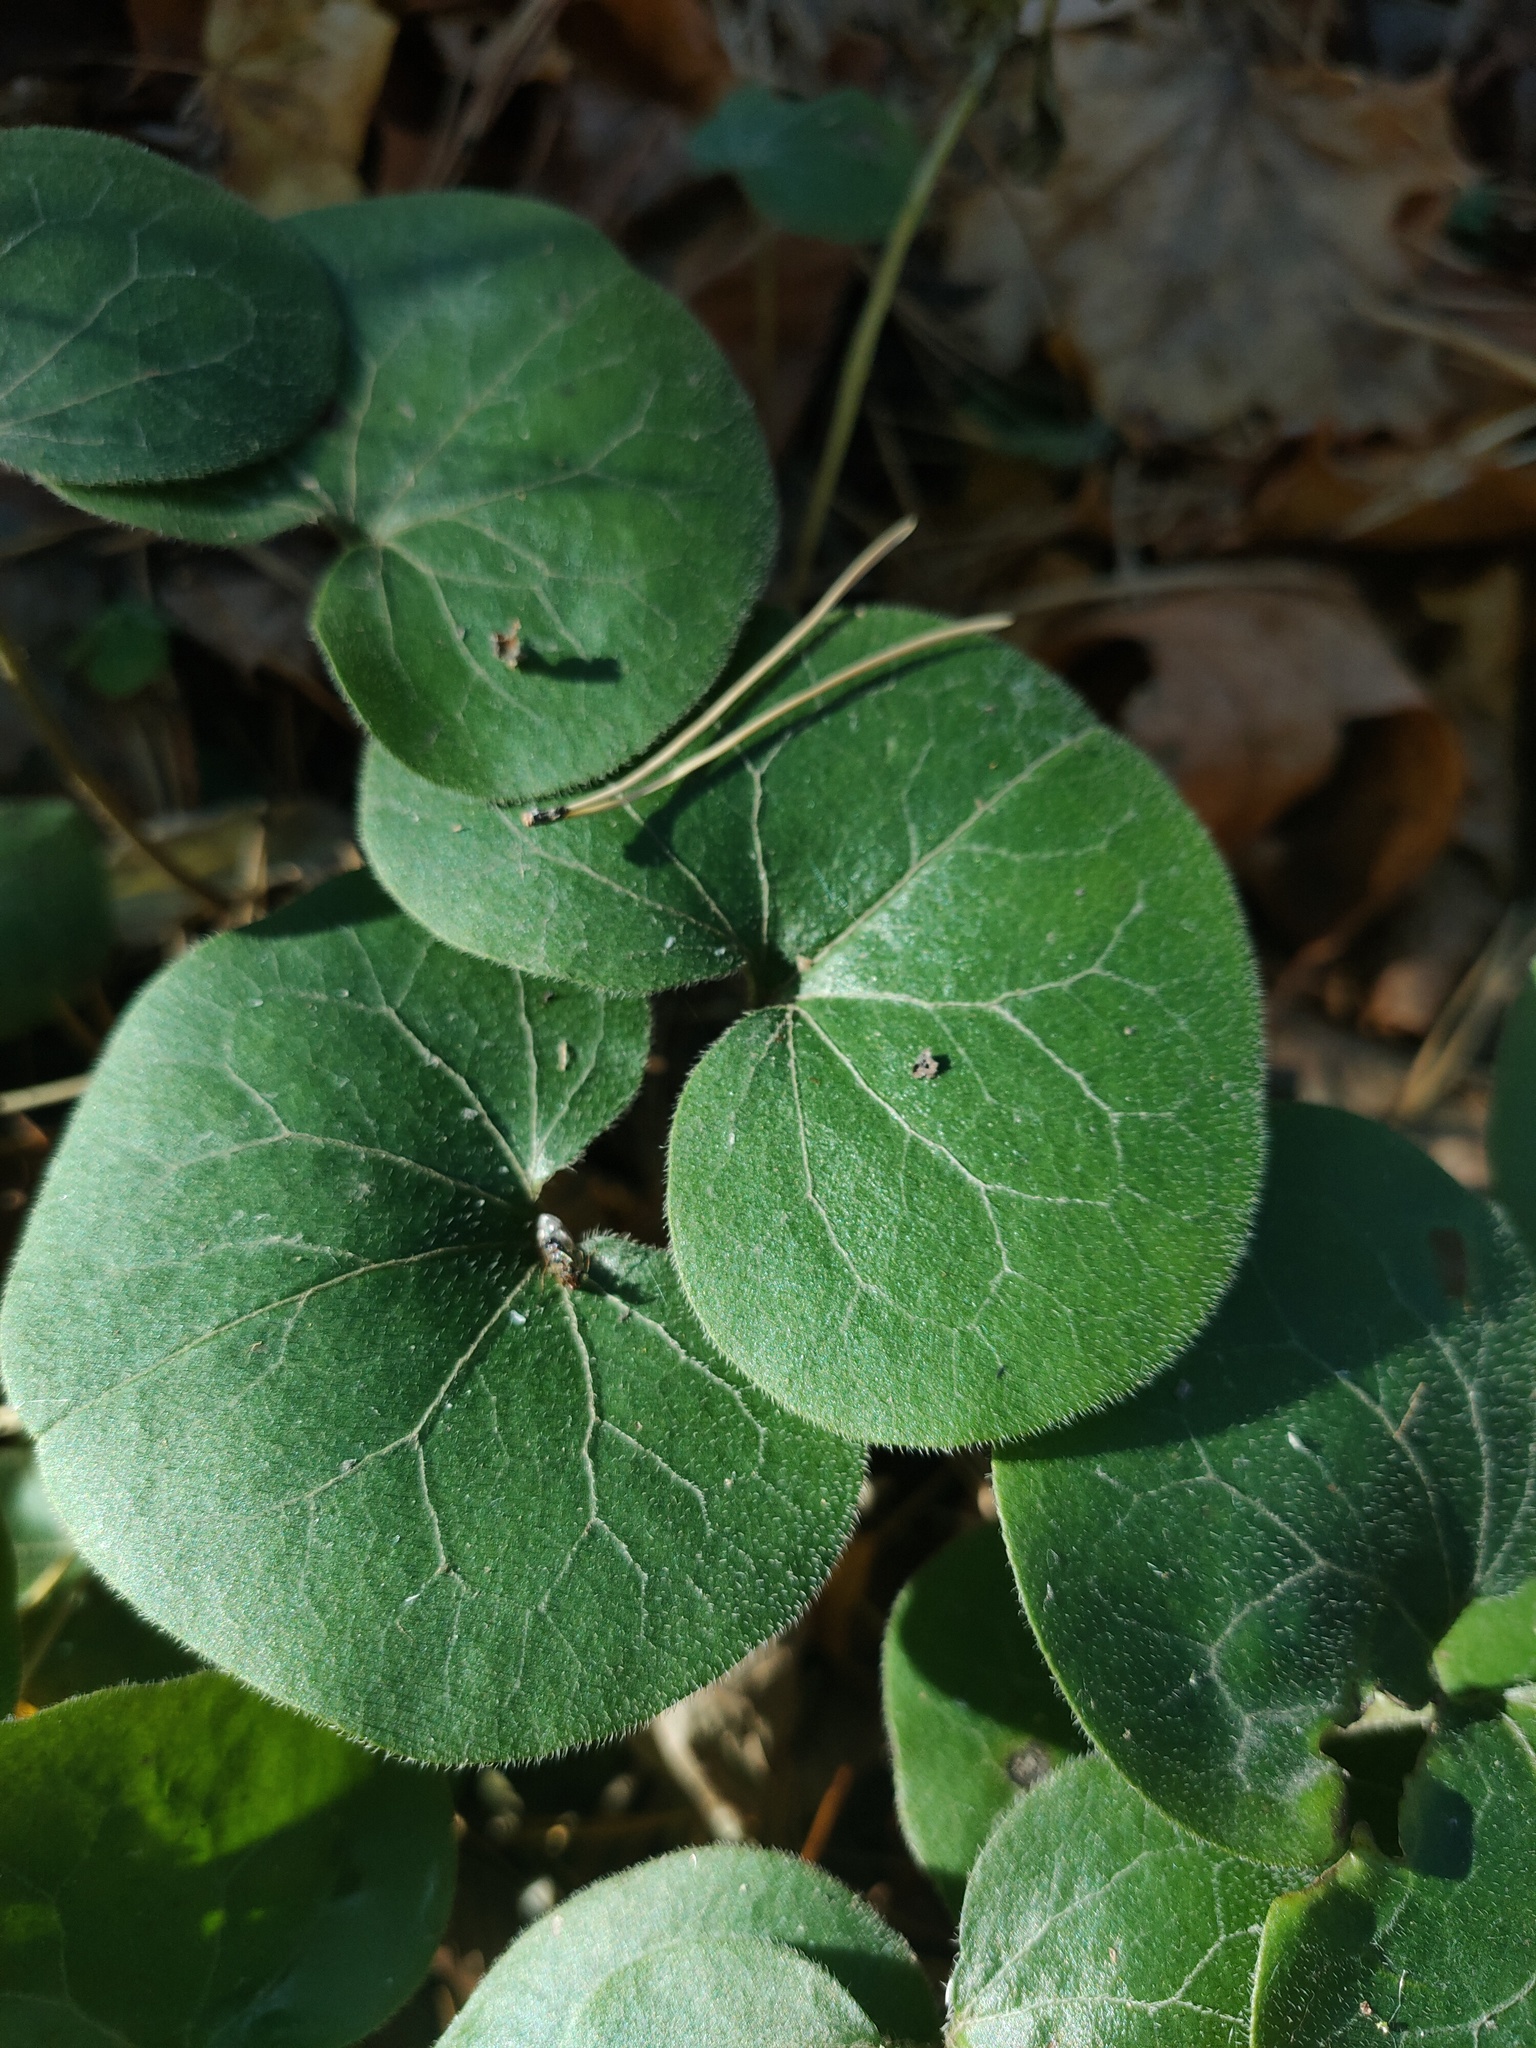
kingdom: Plantae
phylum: Tracheophyta
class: Magnoliopsida
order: Piperales
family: Aristolochiaceae
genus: Asarum
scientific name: Asarum europaeum
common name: Asarabacca
